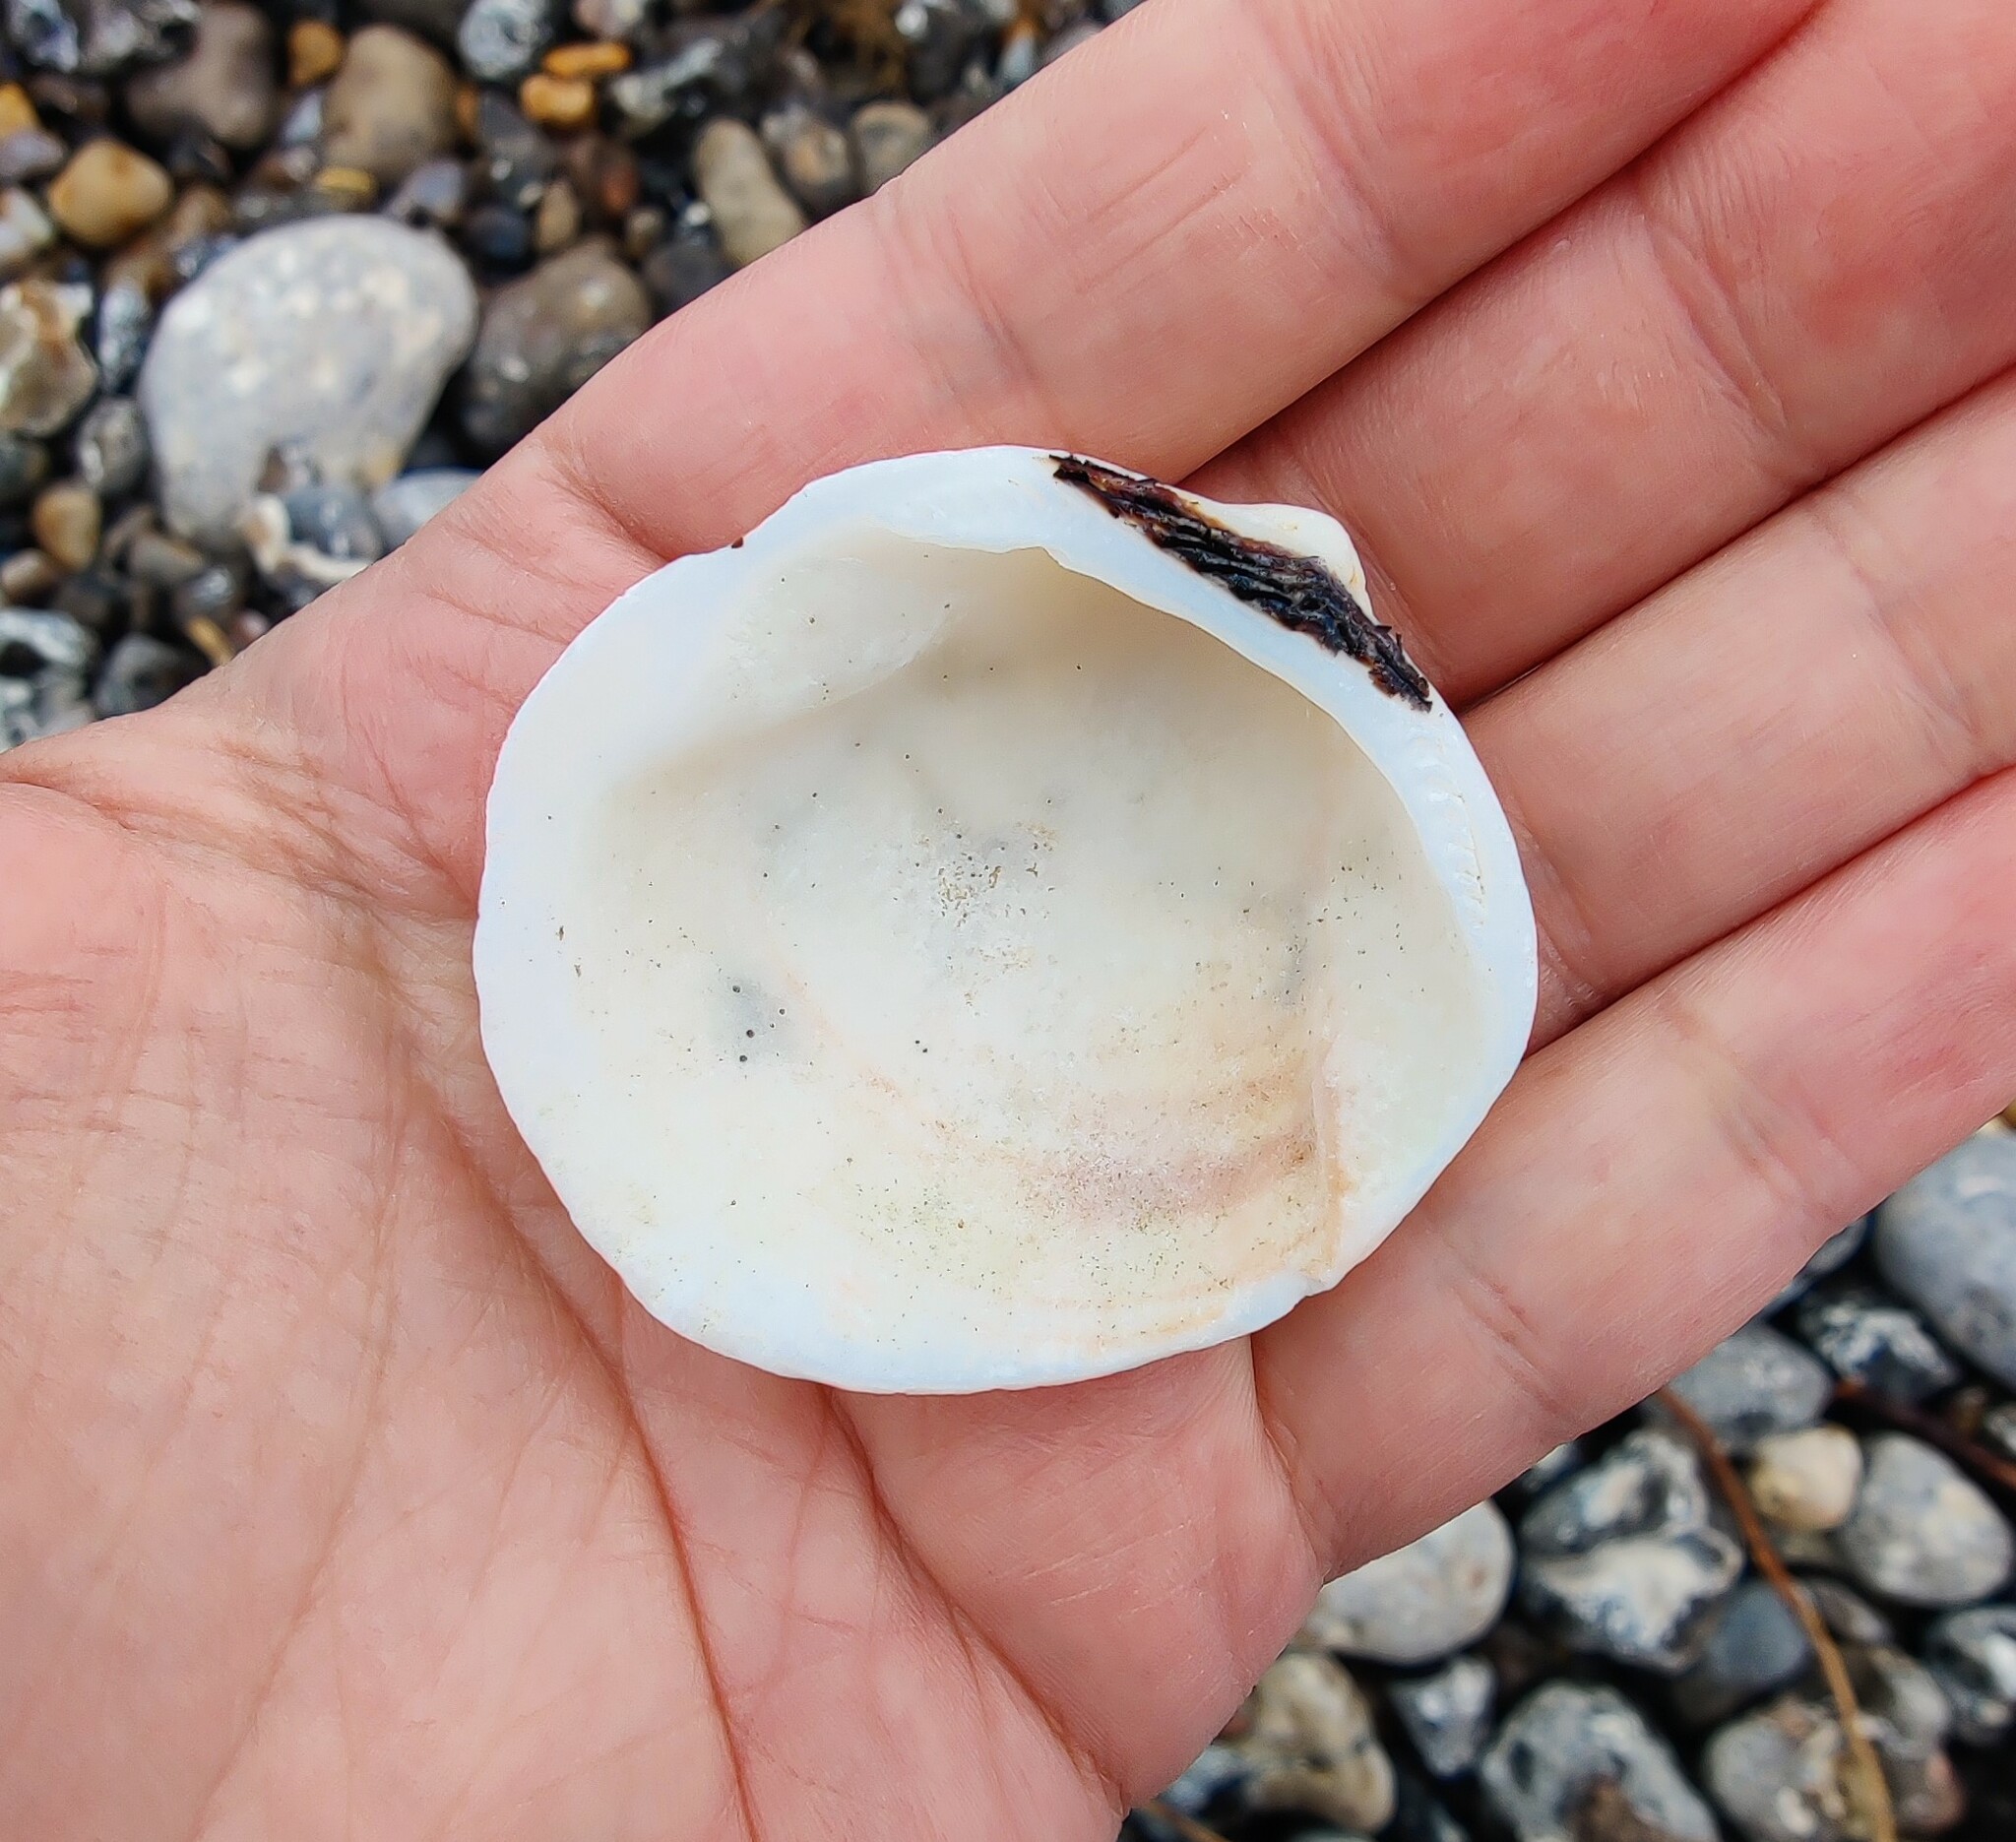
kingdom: Animalia
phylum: Mollusca
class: Bivalvia
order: Arcida
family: Glycymerididae
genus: Glycymeris
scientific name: Glycymeris glycymeris
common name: Dog-cockle
